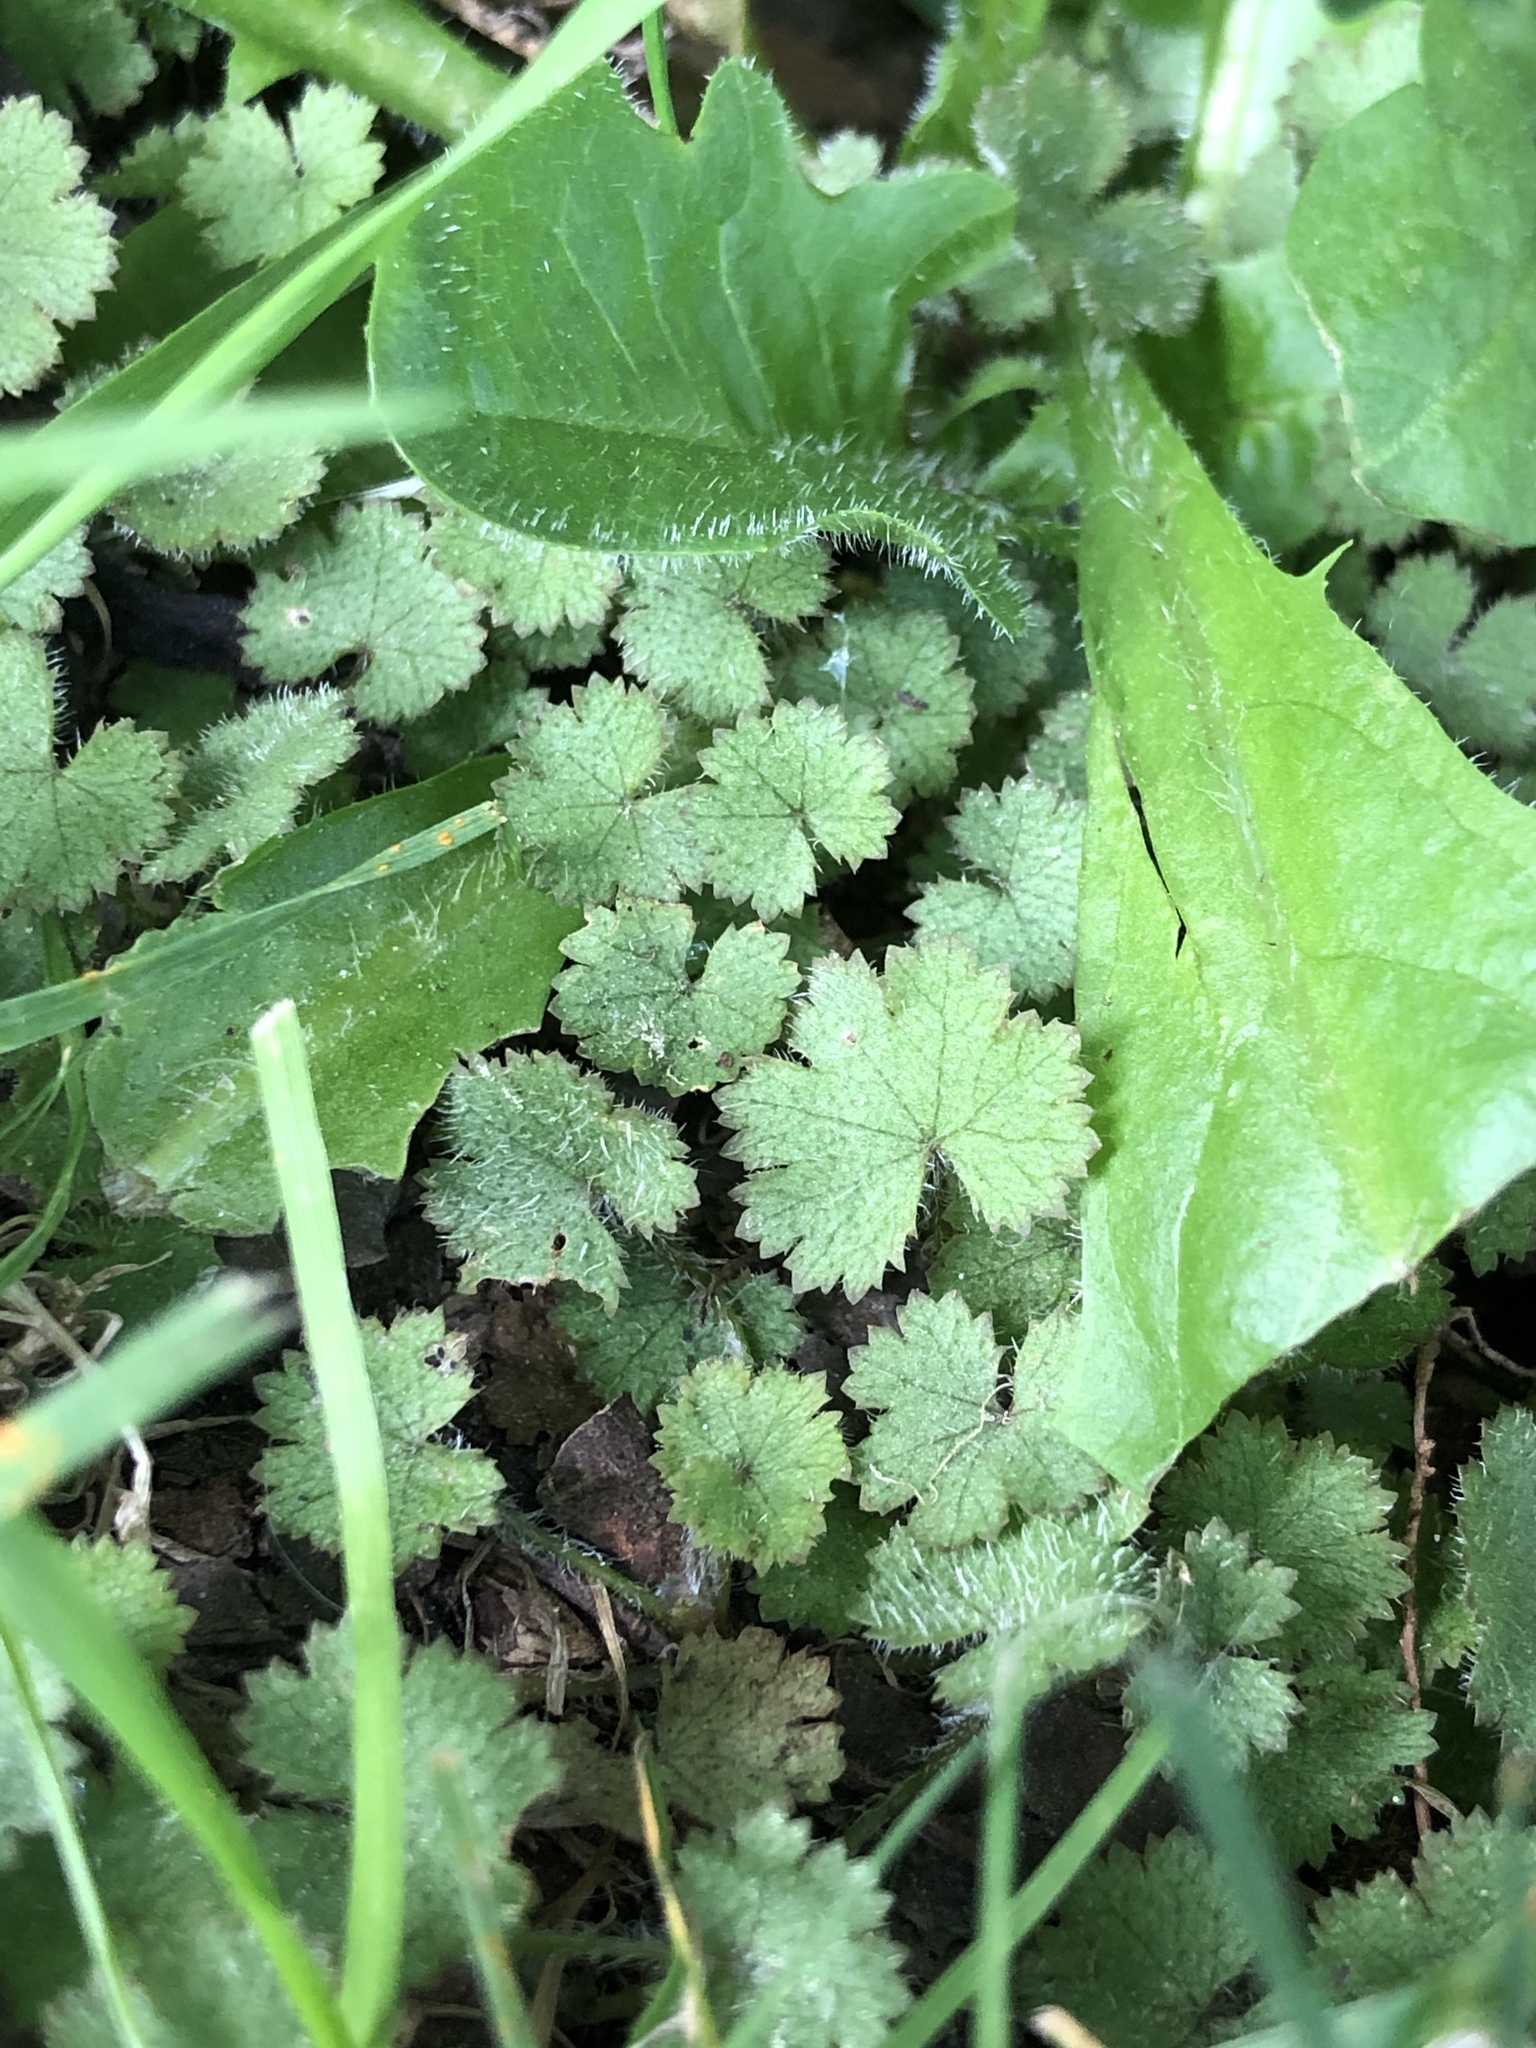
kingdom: Plantae
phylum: Tracheophyta
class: Magnoliopsida
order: Apiales
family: Araliaceae
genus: Hydrocotyle
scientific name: Hydrocotyle moschata
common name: Hairy pennywort
